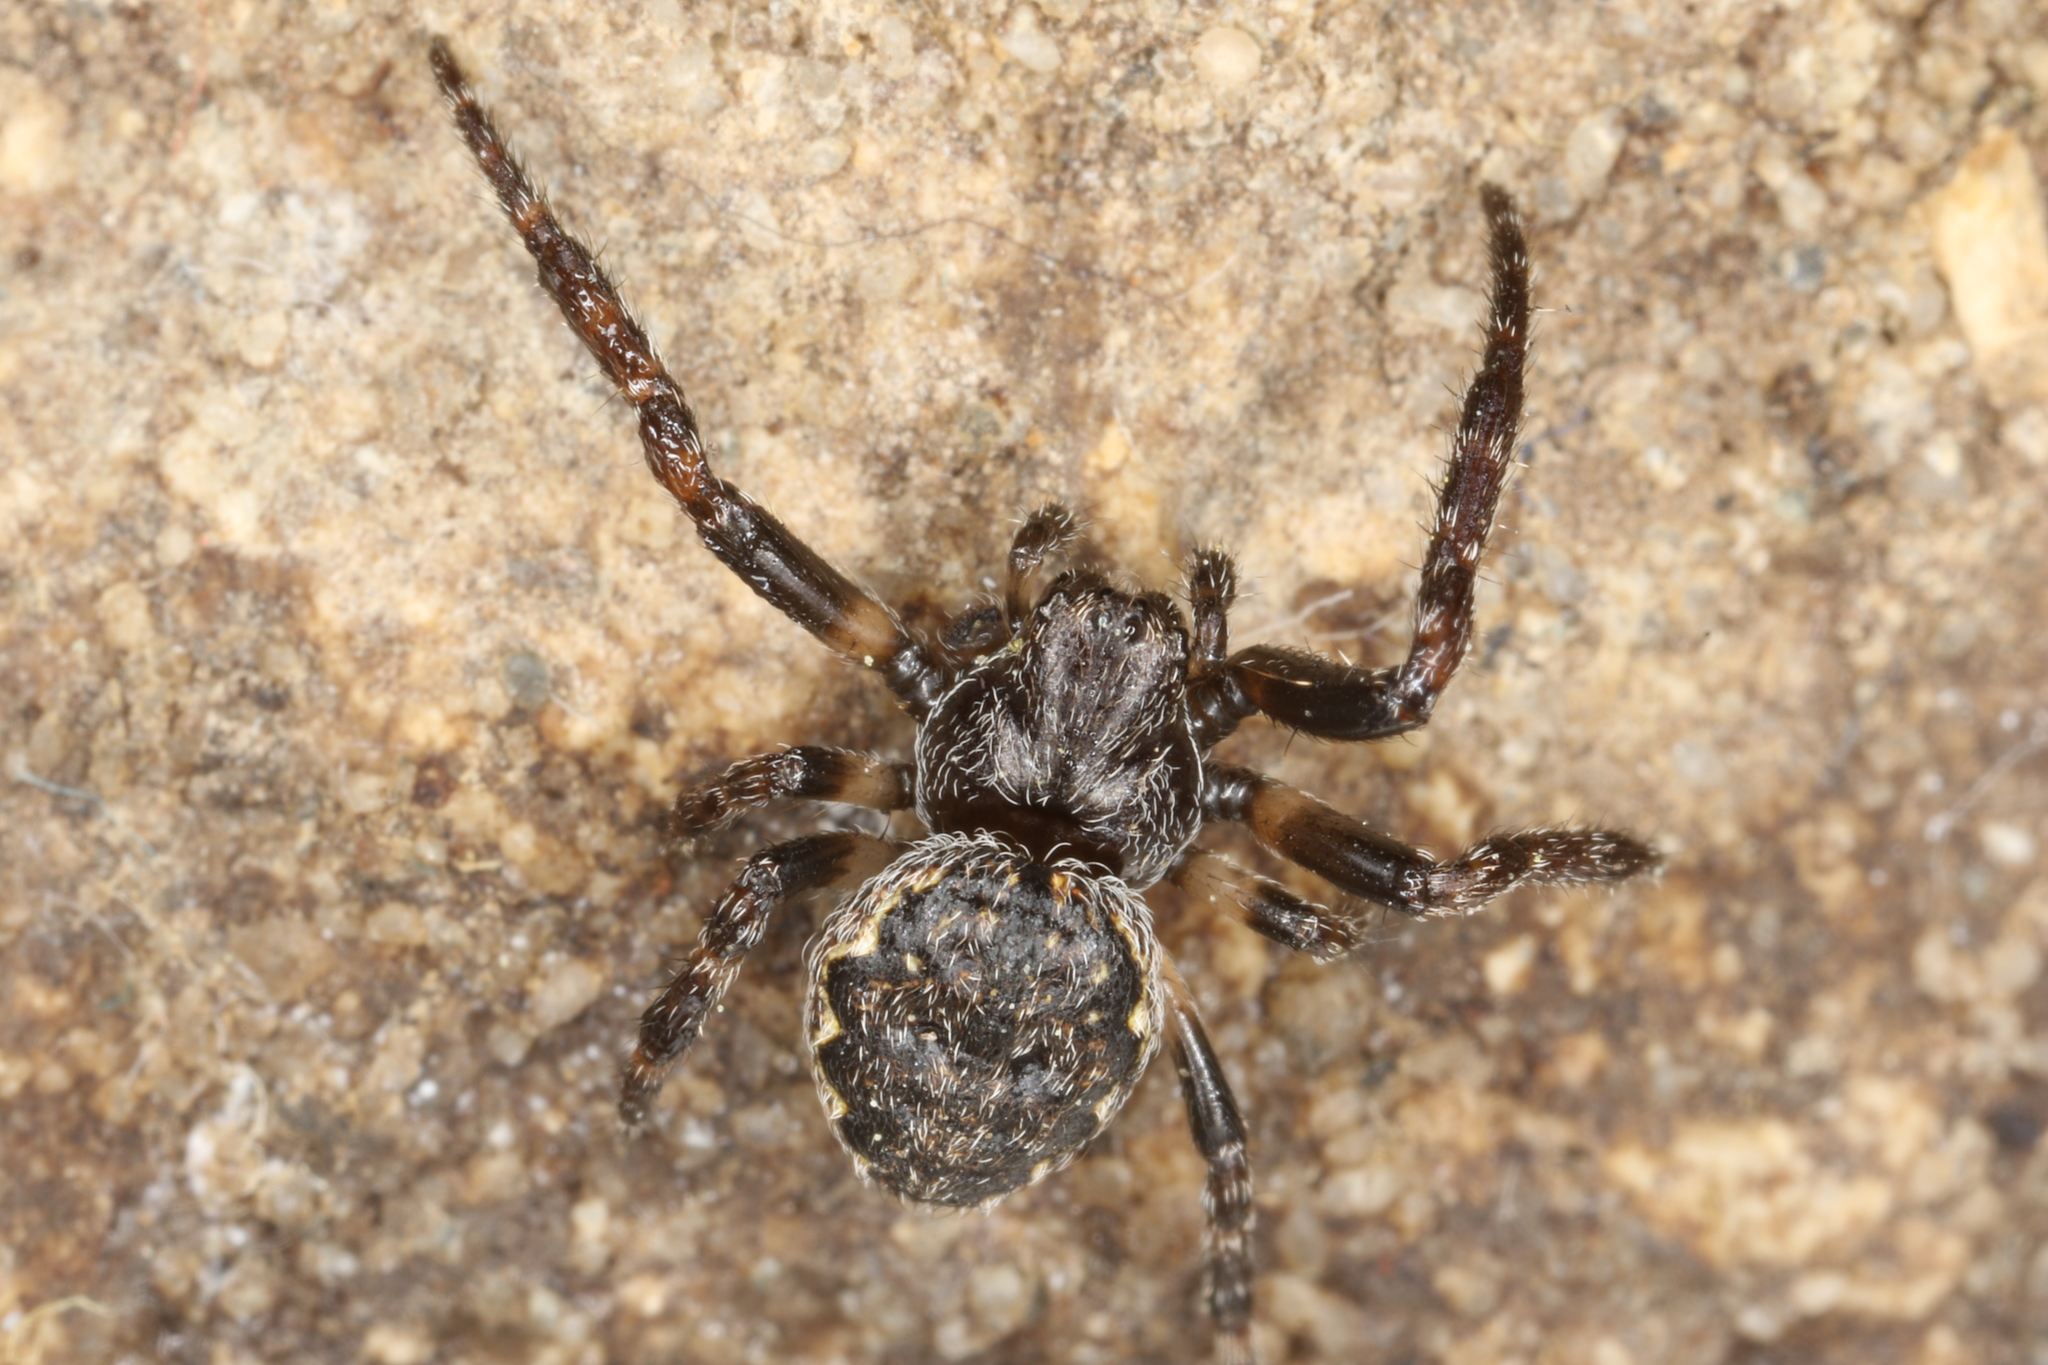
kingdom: Animalia
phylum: Arthropoda
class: Arachnida
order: Araneae
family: Araneidae
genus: Nuctenea
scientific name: Nuctenea umbratica
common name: Toad spider
